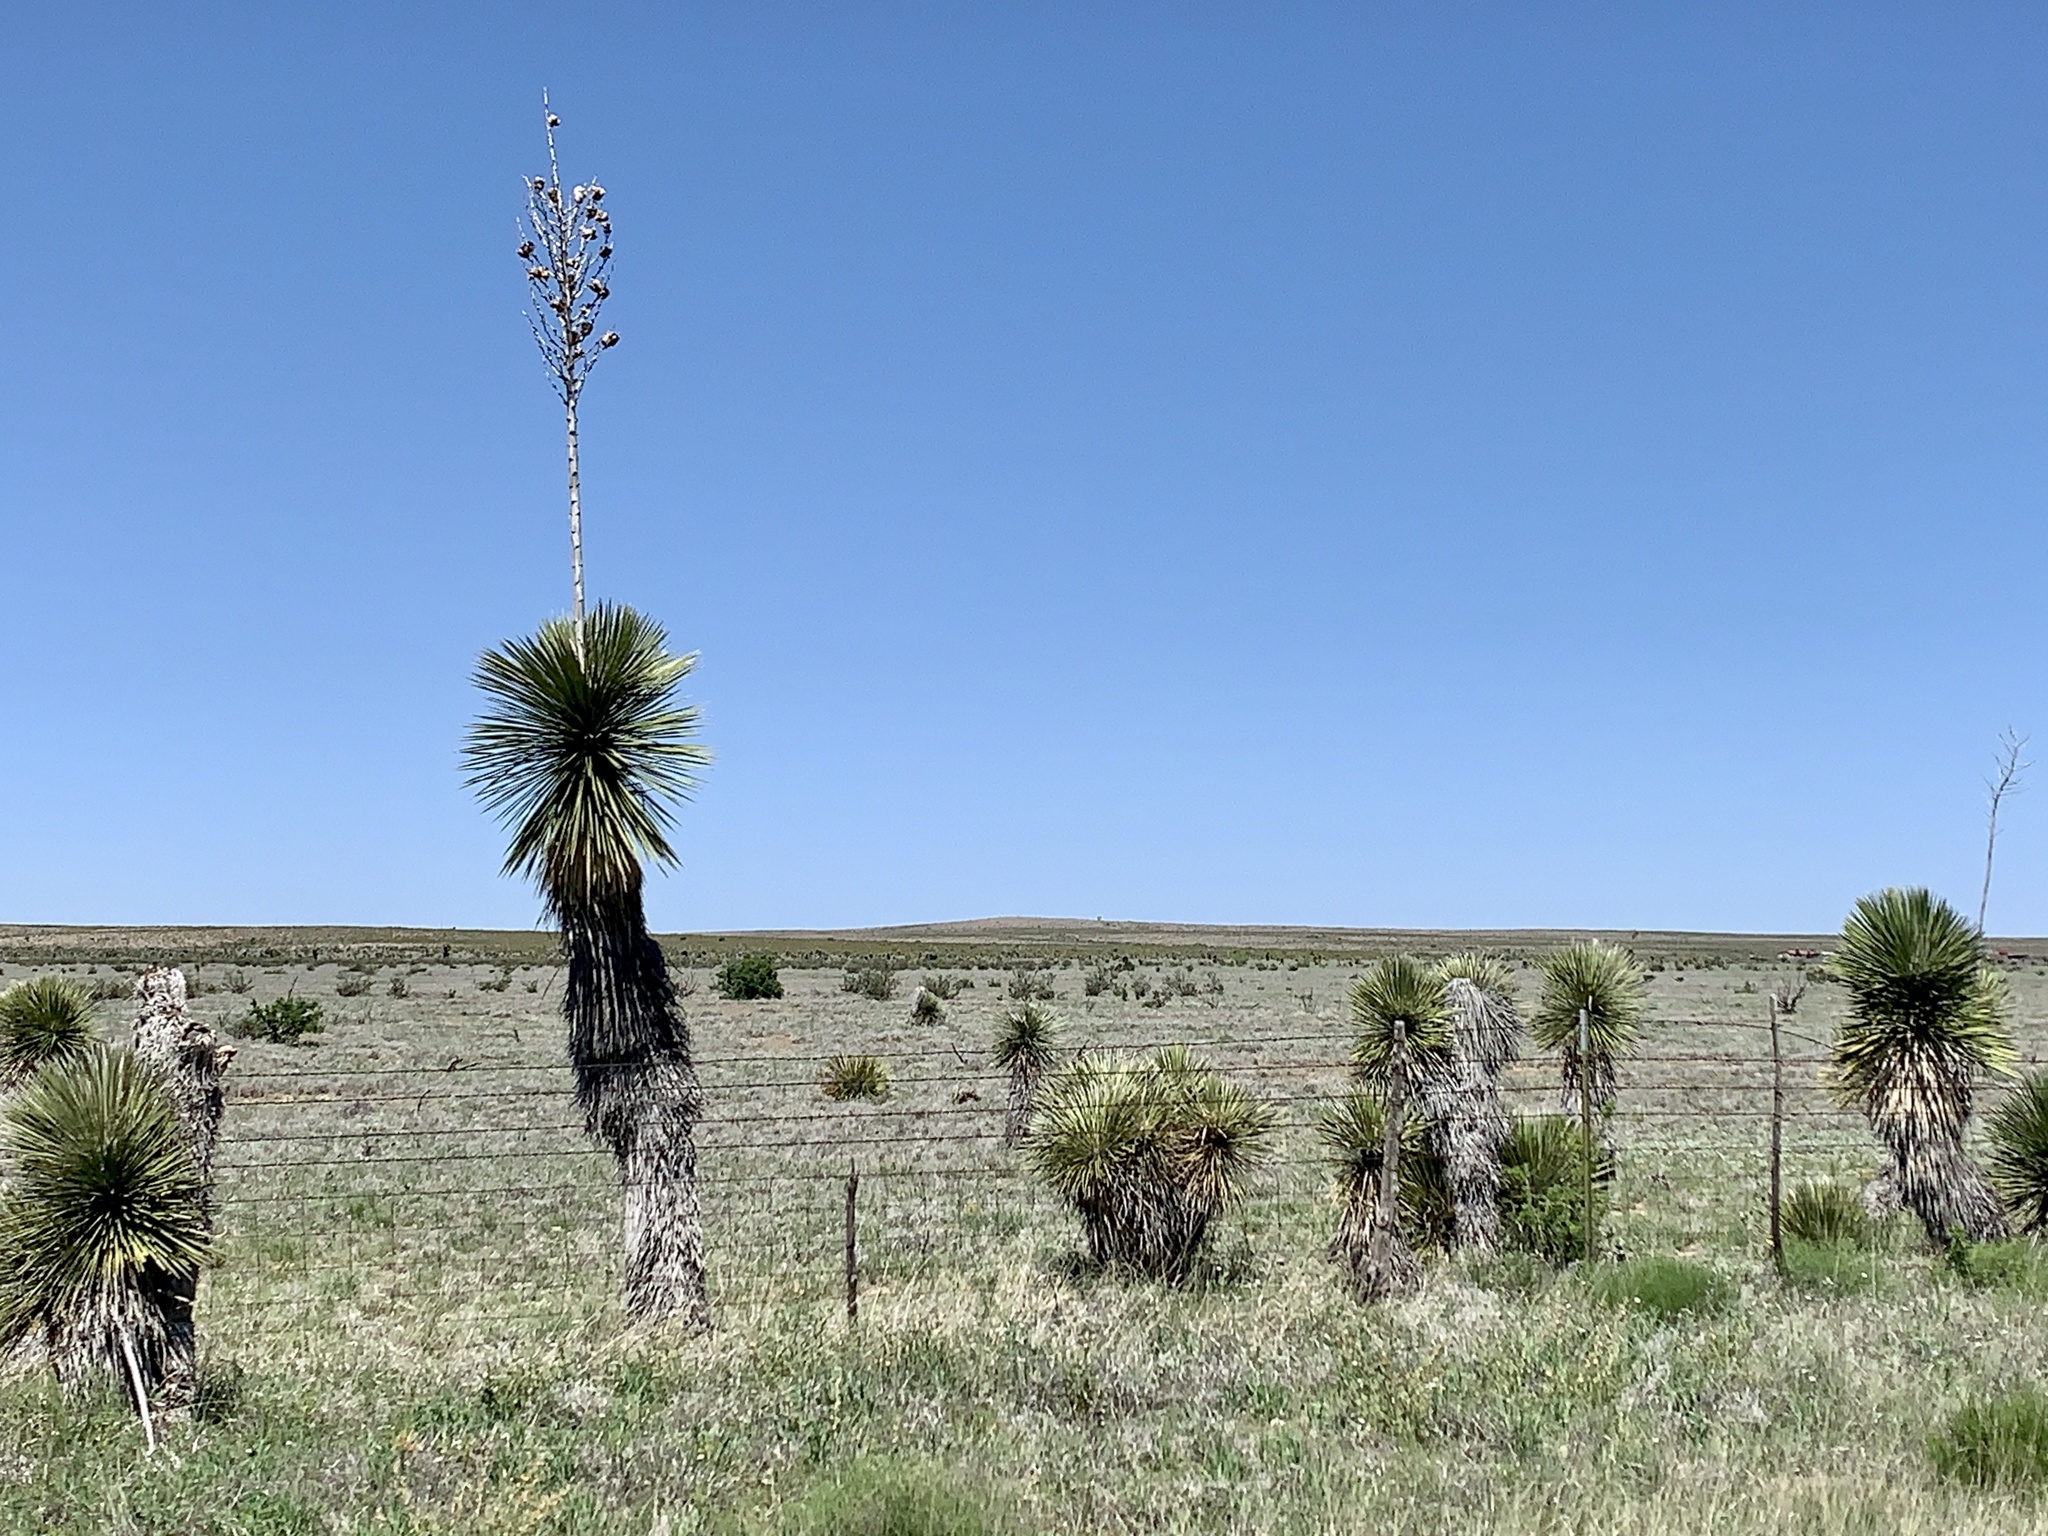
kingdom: Plantae
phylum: Tracheophyta
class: Liliopsida
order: Asparagales
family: Asparagaceae
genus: Yucca
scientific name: Yucca elata
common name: Palmella
